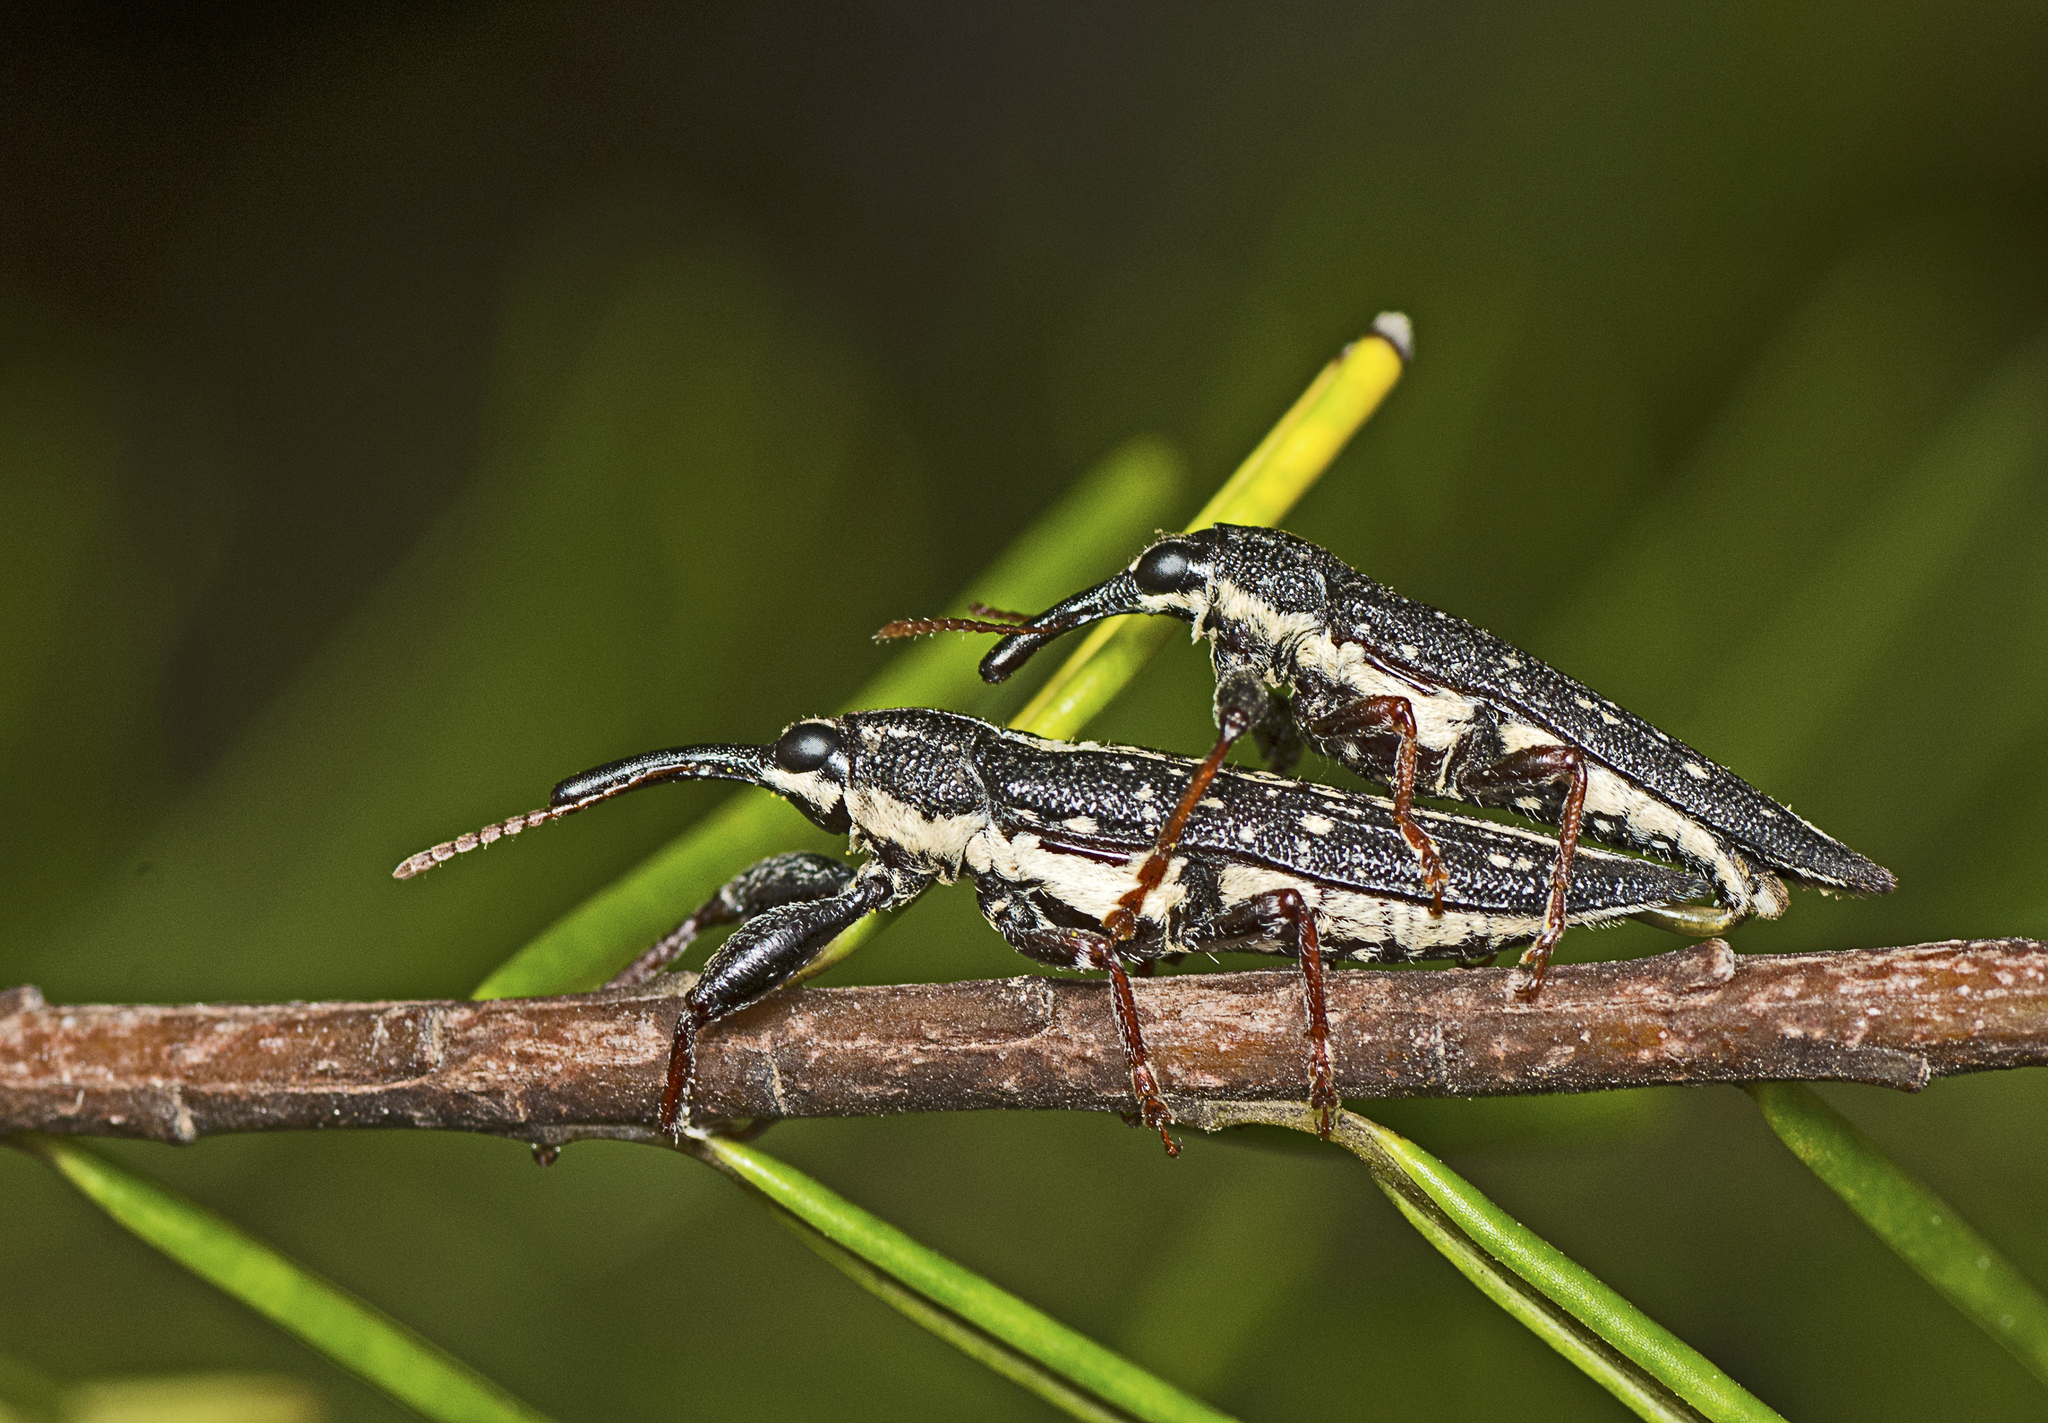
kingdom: Animalia
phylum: Arthropoda
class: Insecta
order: Coleoptera
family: Belidae
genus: Rhinotia
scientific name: Rhinotia lineata
